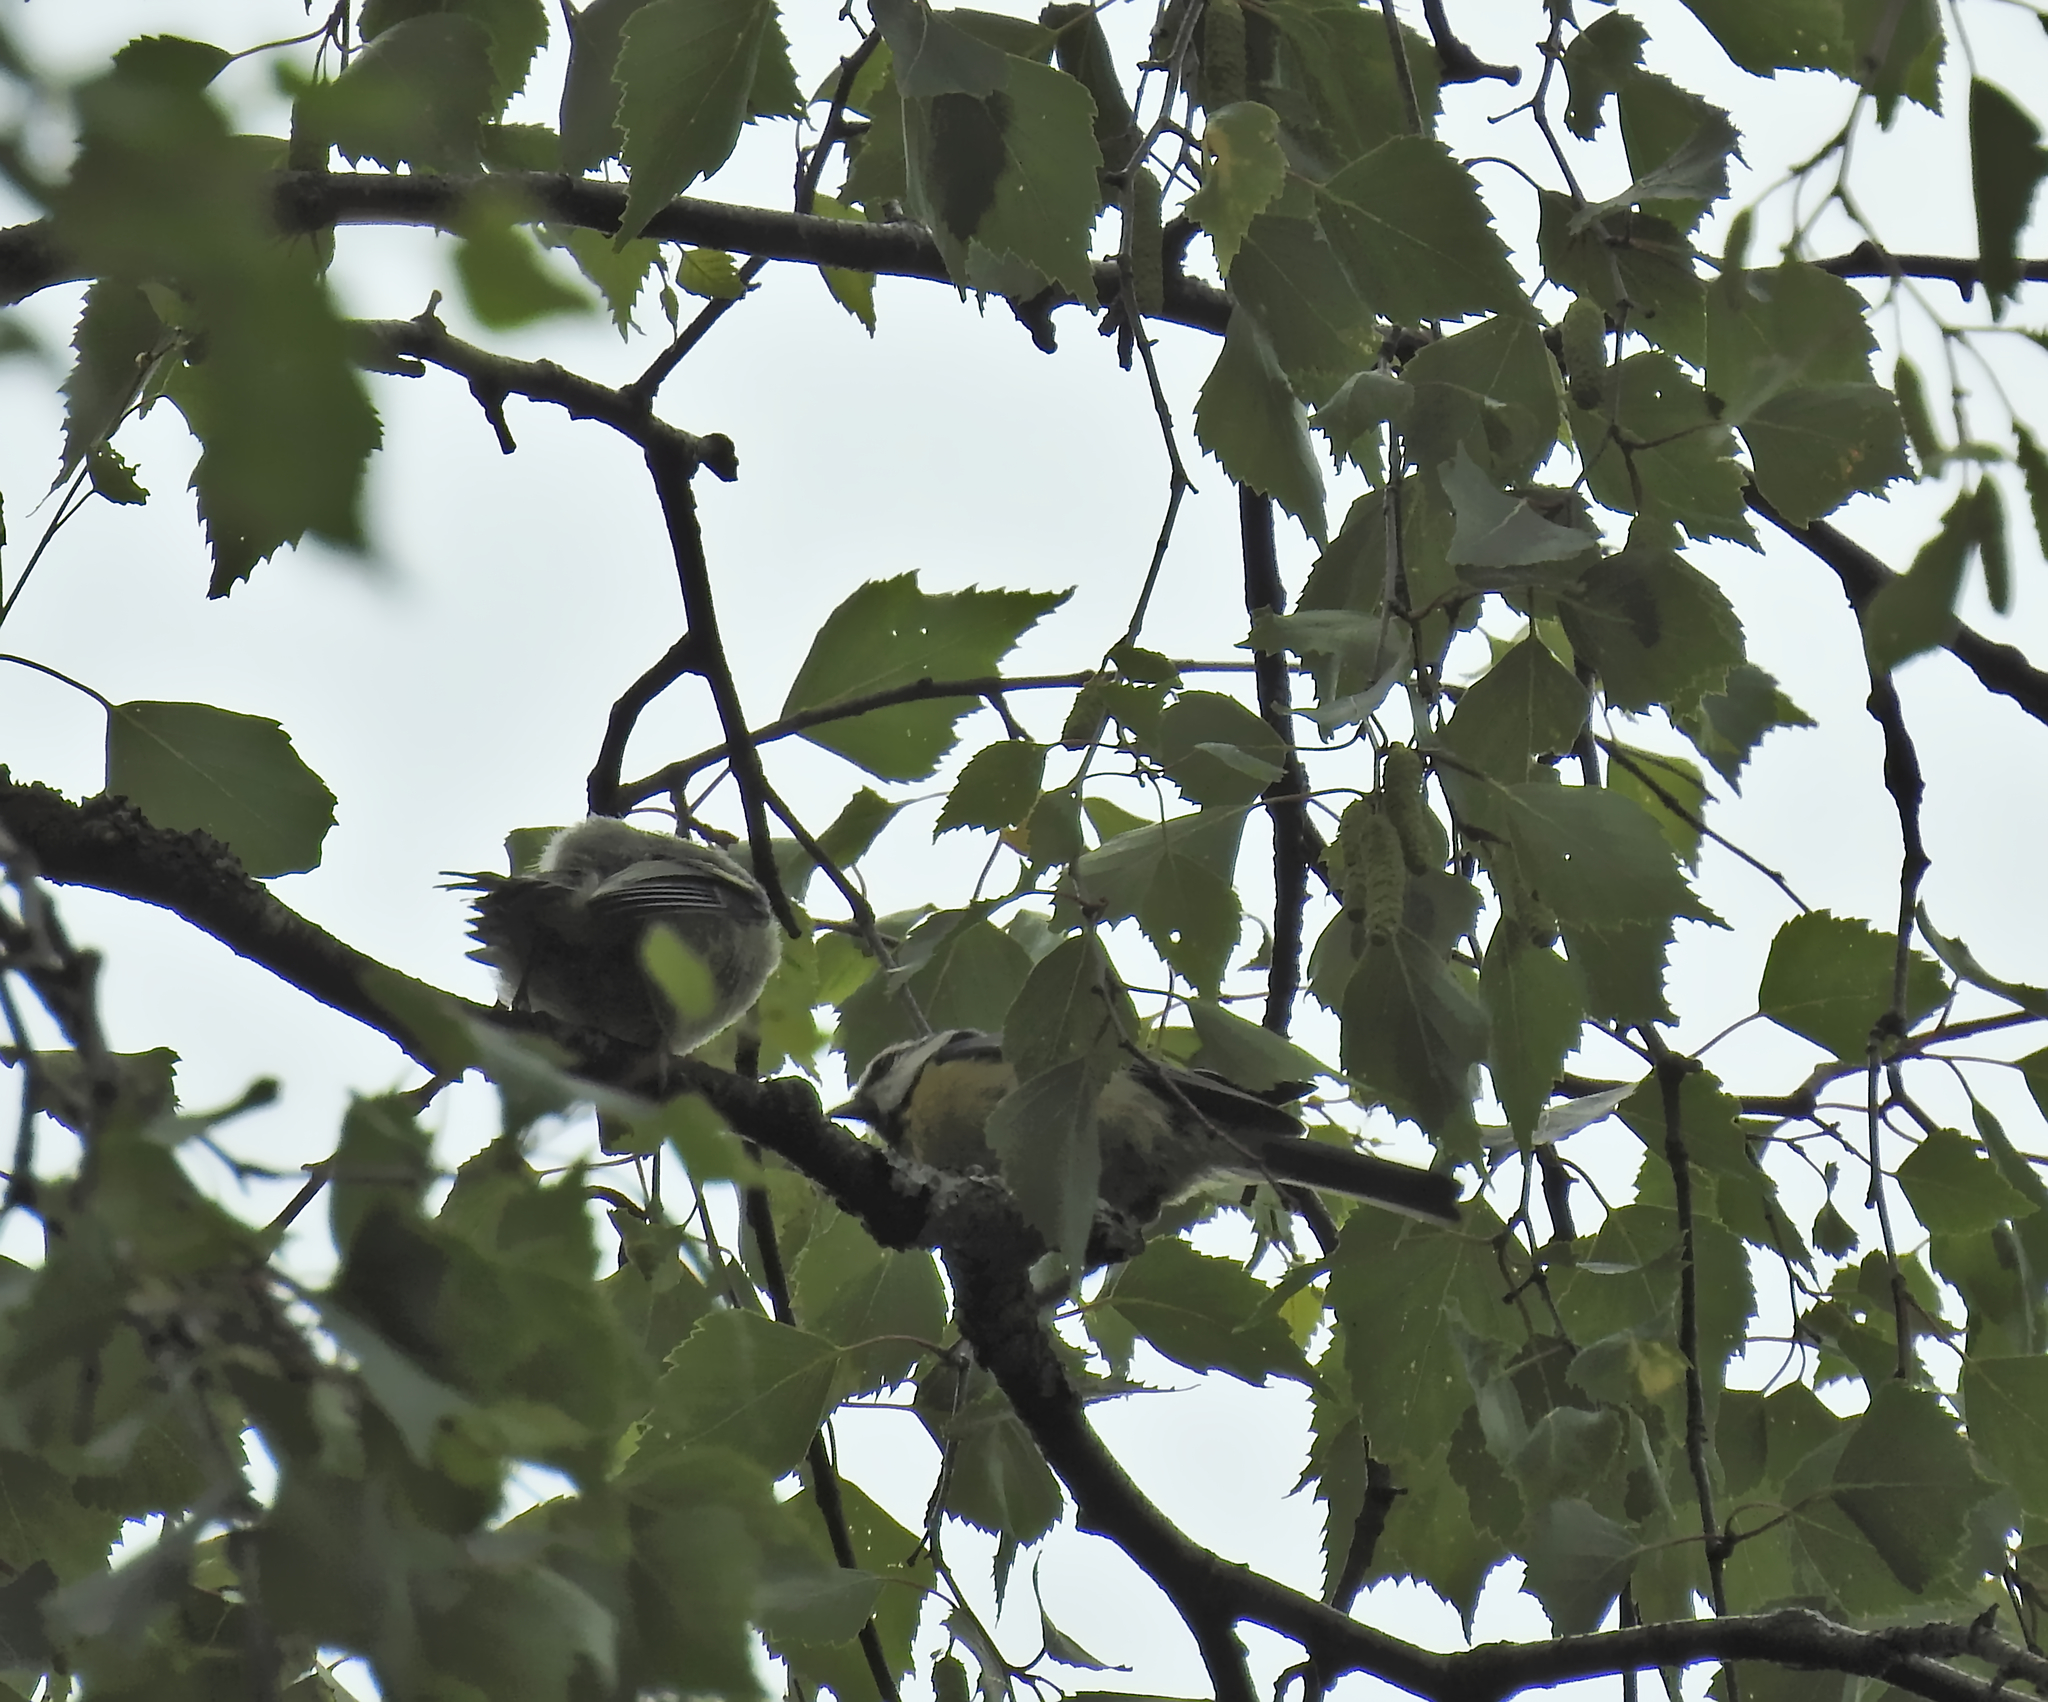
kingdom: Animalia
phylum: Chordata
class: Aves
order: Passeriformes
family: Paridae
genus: Cyanistes
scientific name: Cyanistes caeruleus
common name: Eurasian blue tit
